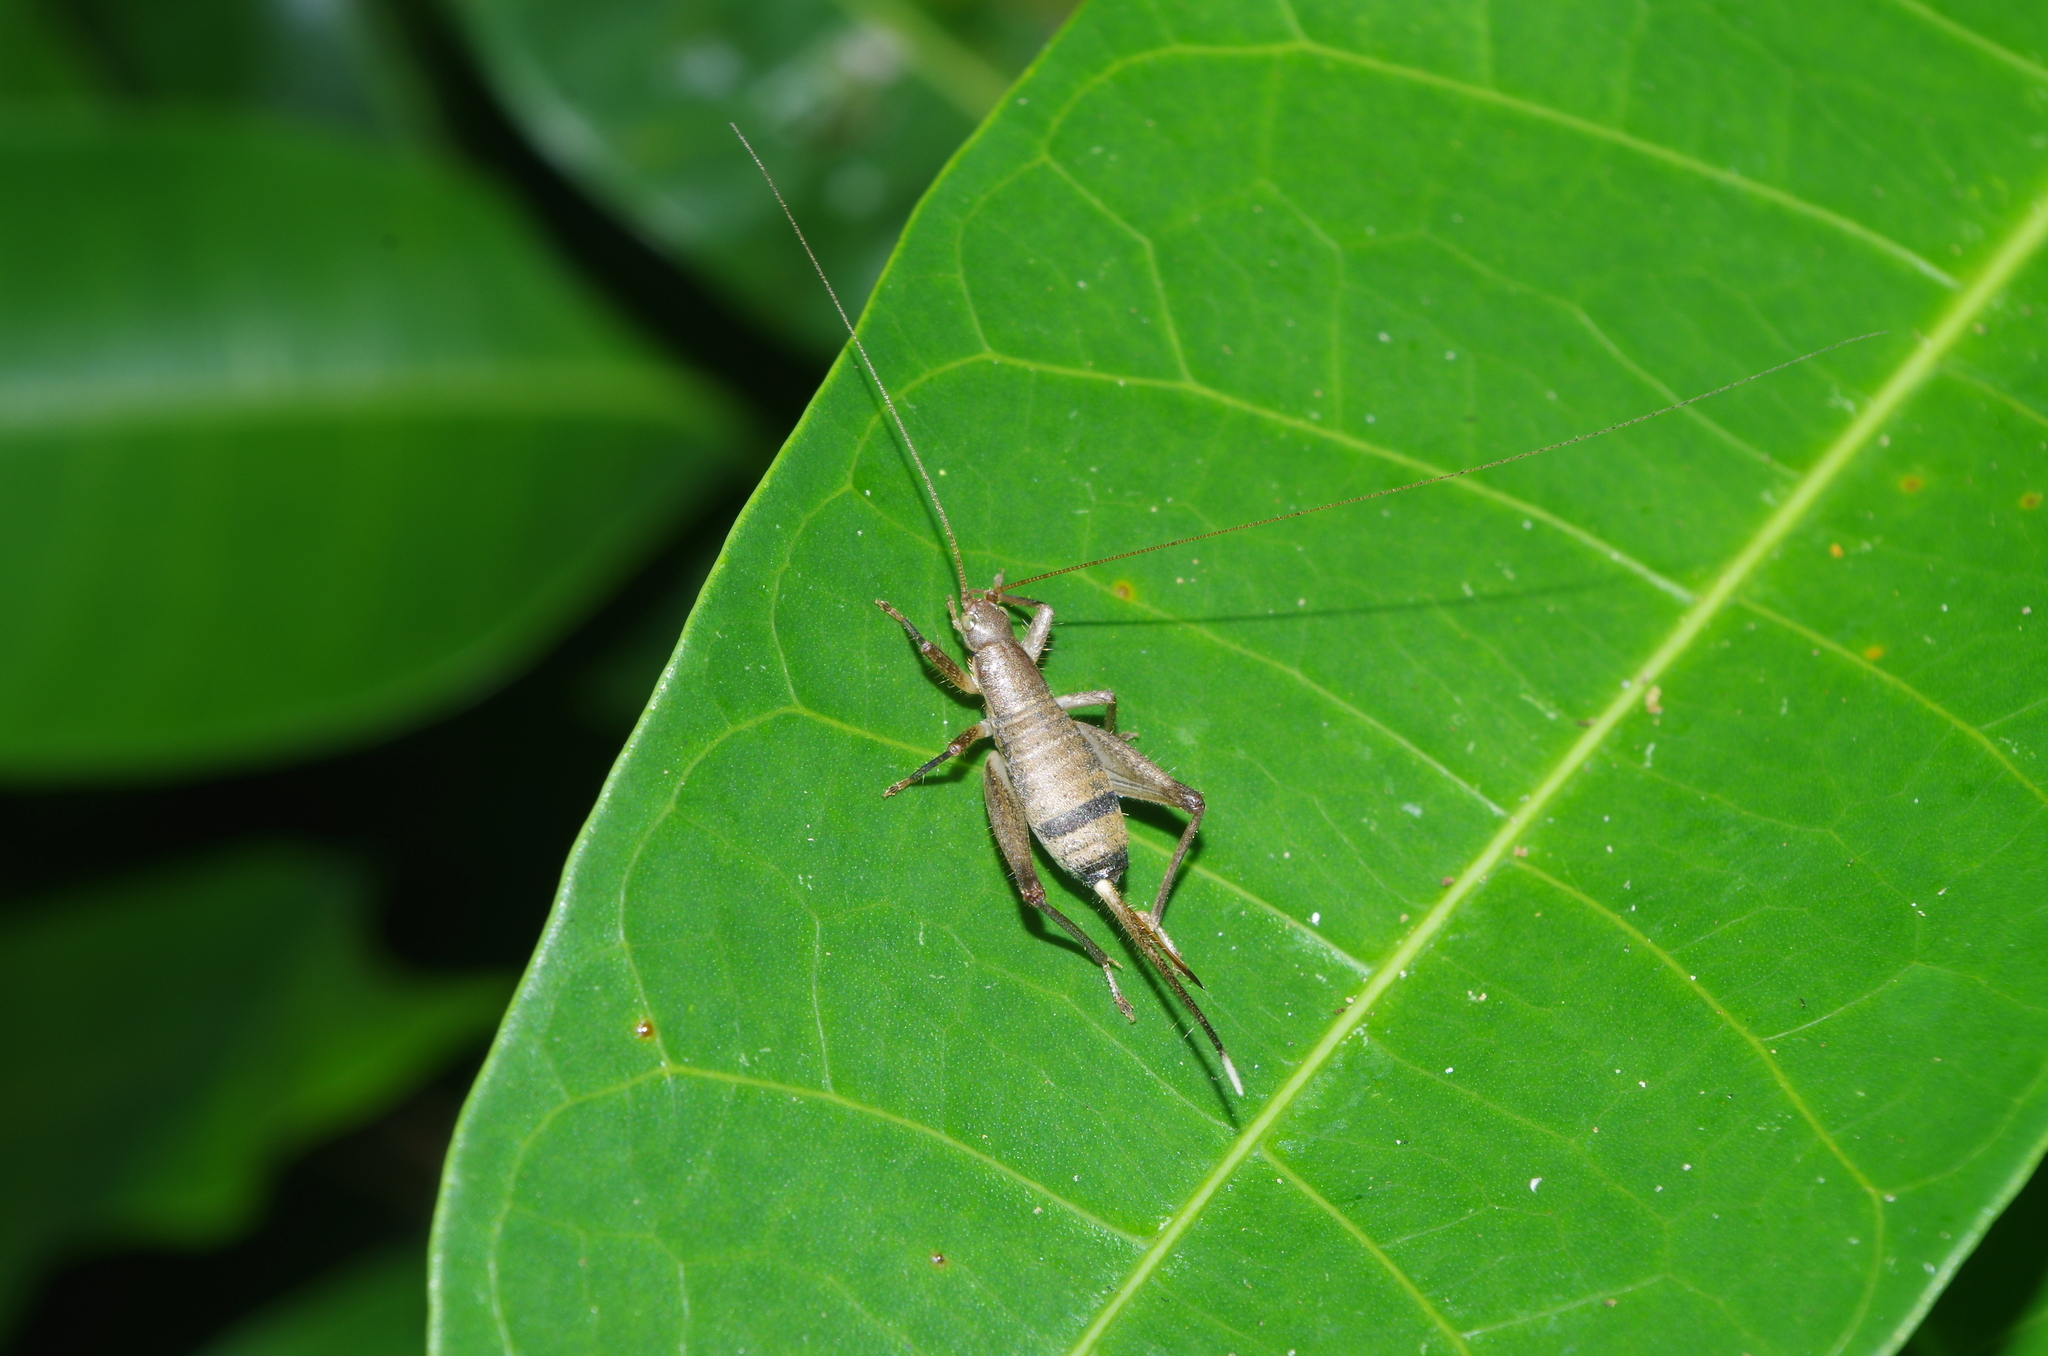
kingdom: Animalia
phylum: Arthropoda
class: Insecta
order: Orthoptera
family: Mogoplistidae
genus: Ornebius
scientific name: Ornebius longipennis
